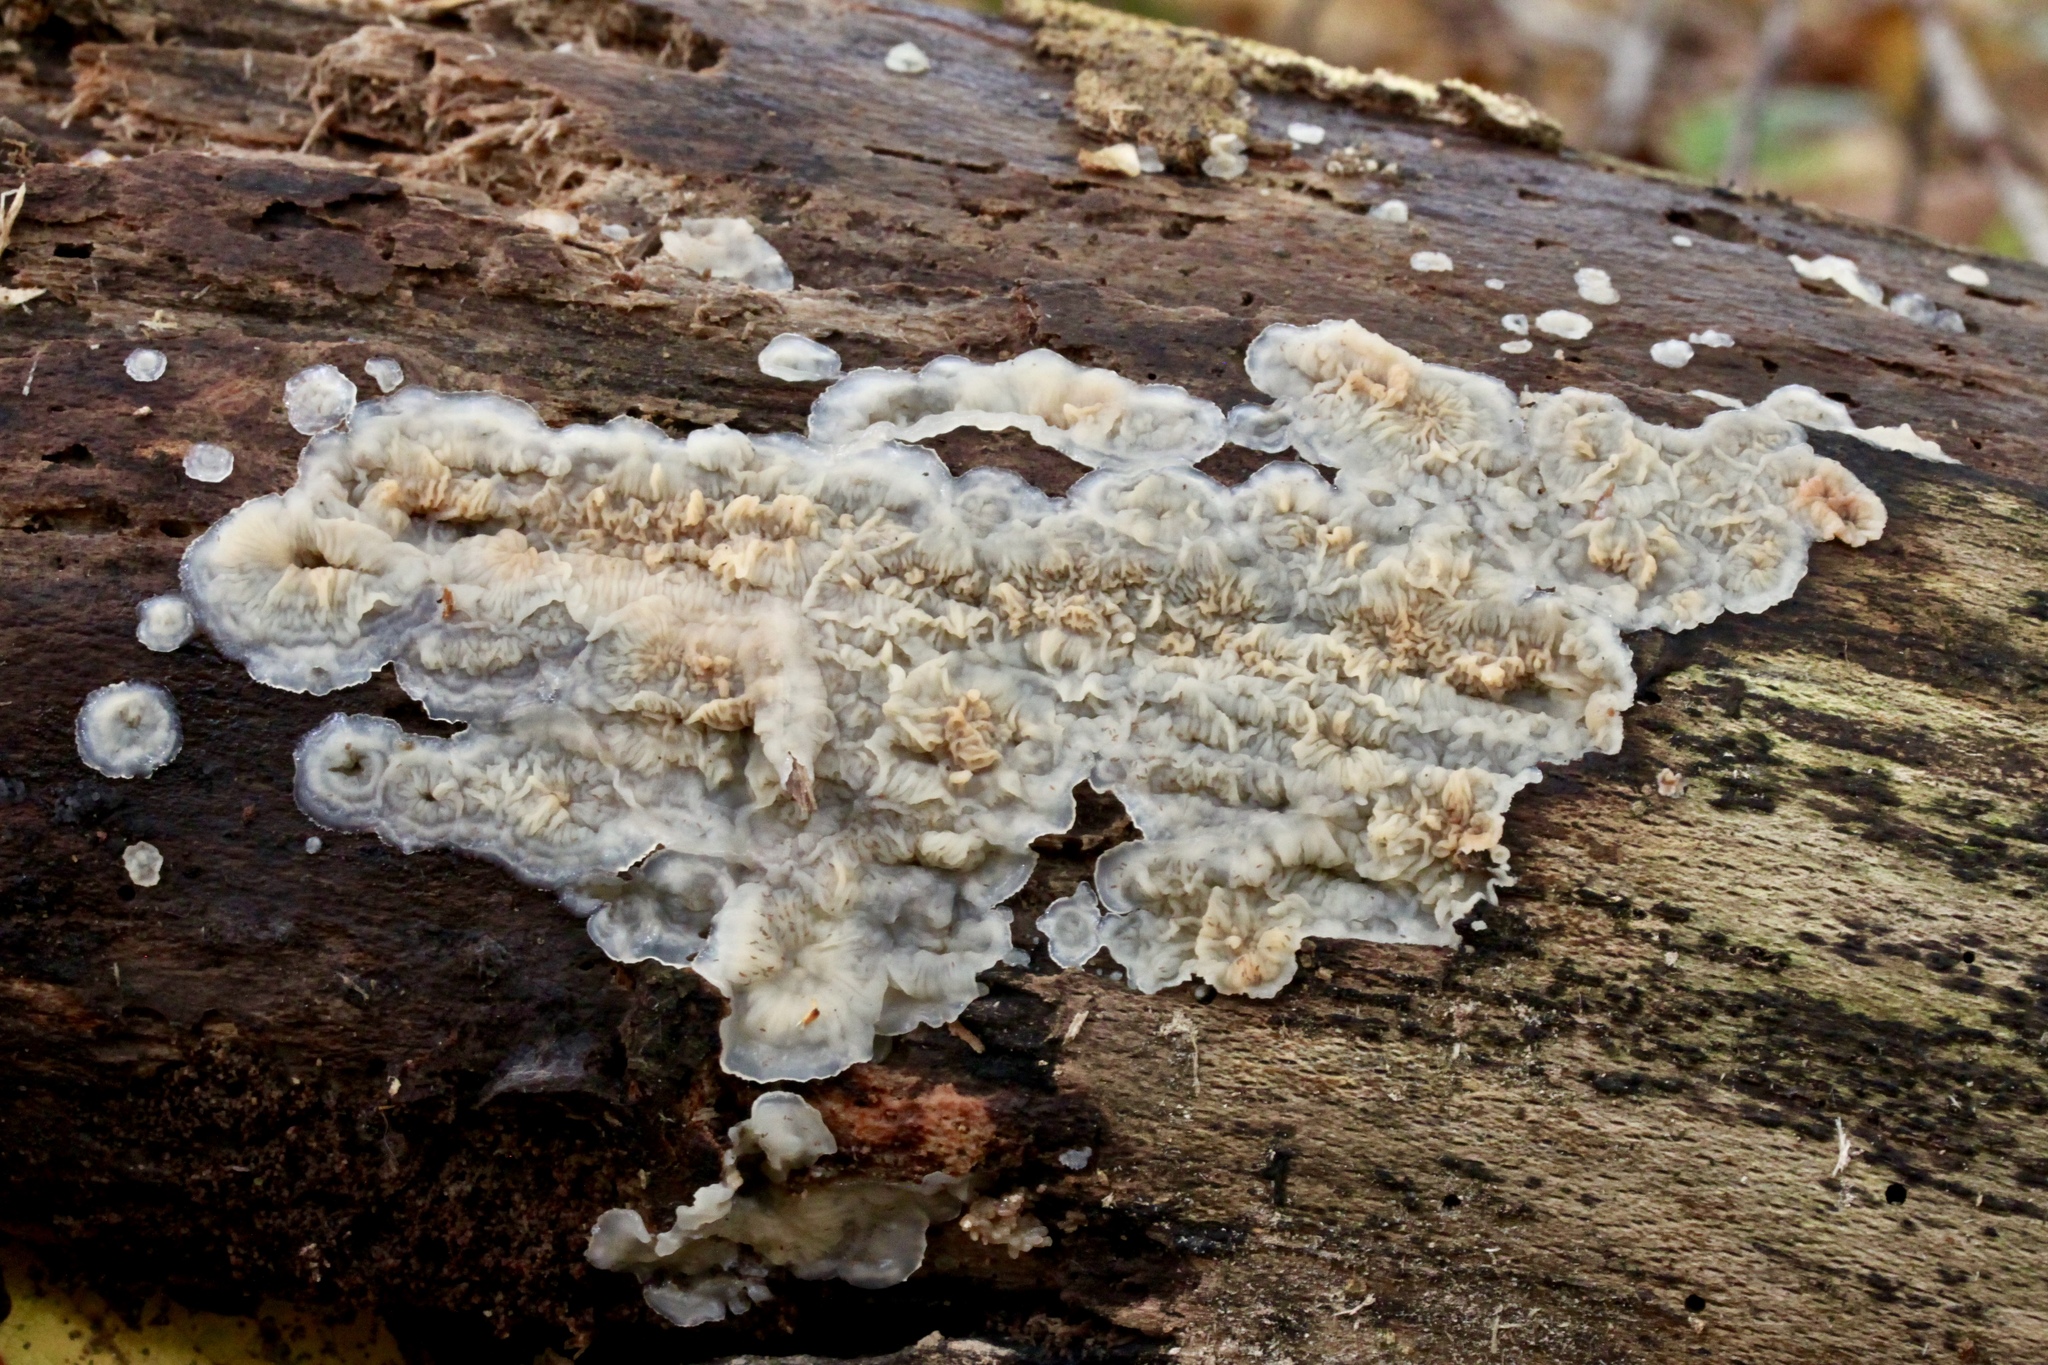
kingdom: Fungi
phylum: Basidiomycota
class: Agaricomycetes
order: Polyporales
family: Meruliaceae
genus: Phlebia
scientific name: Phlebia tremellosa
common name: Jelly rot
